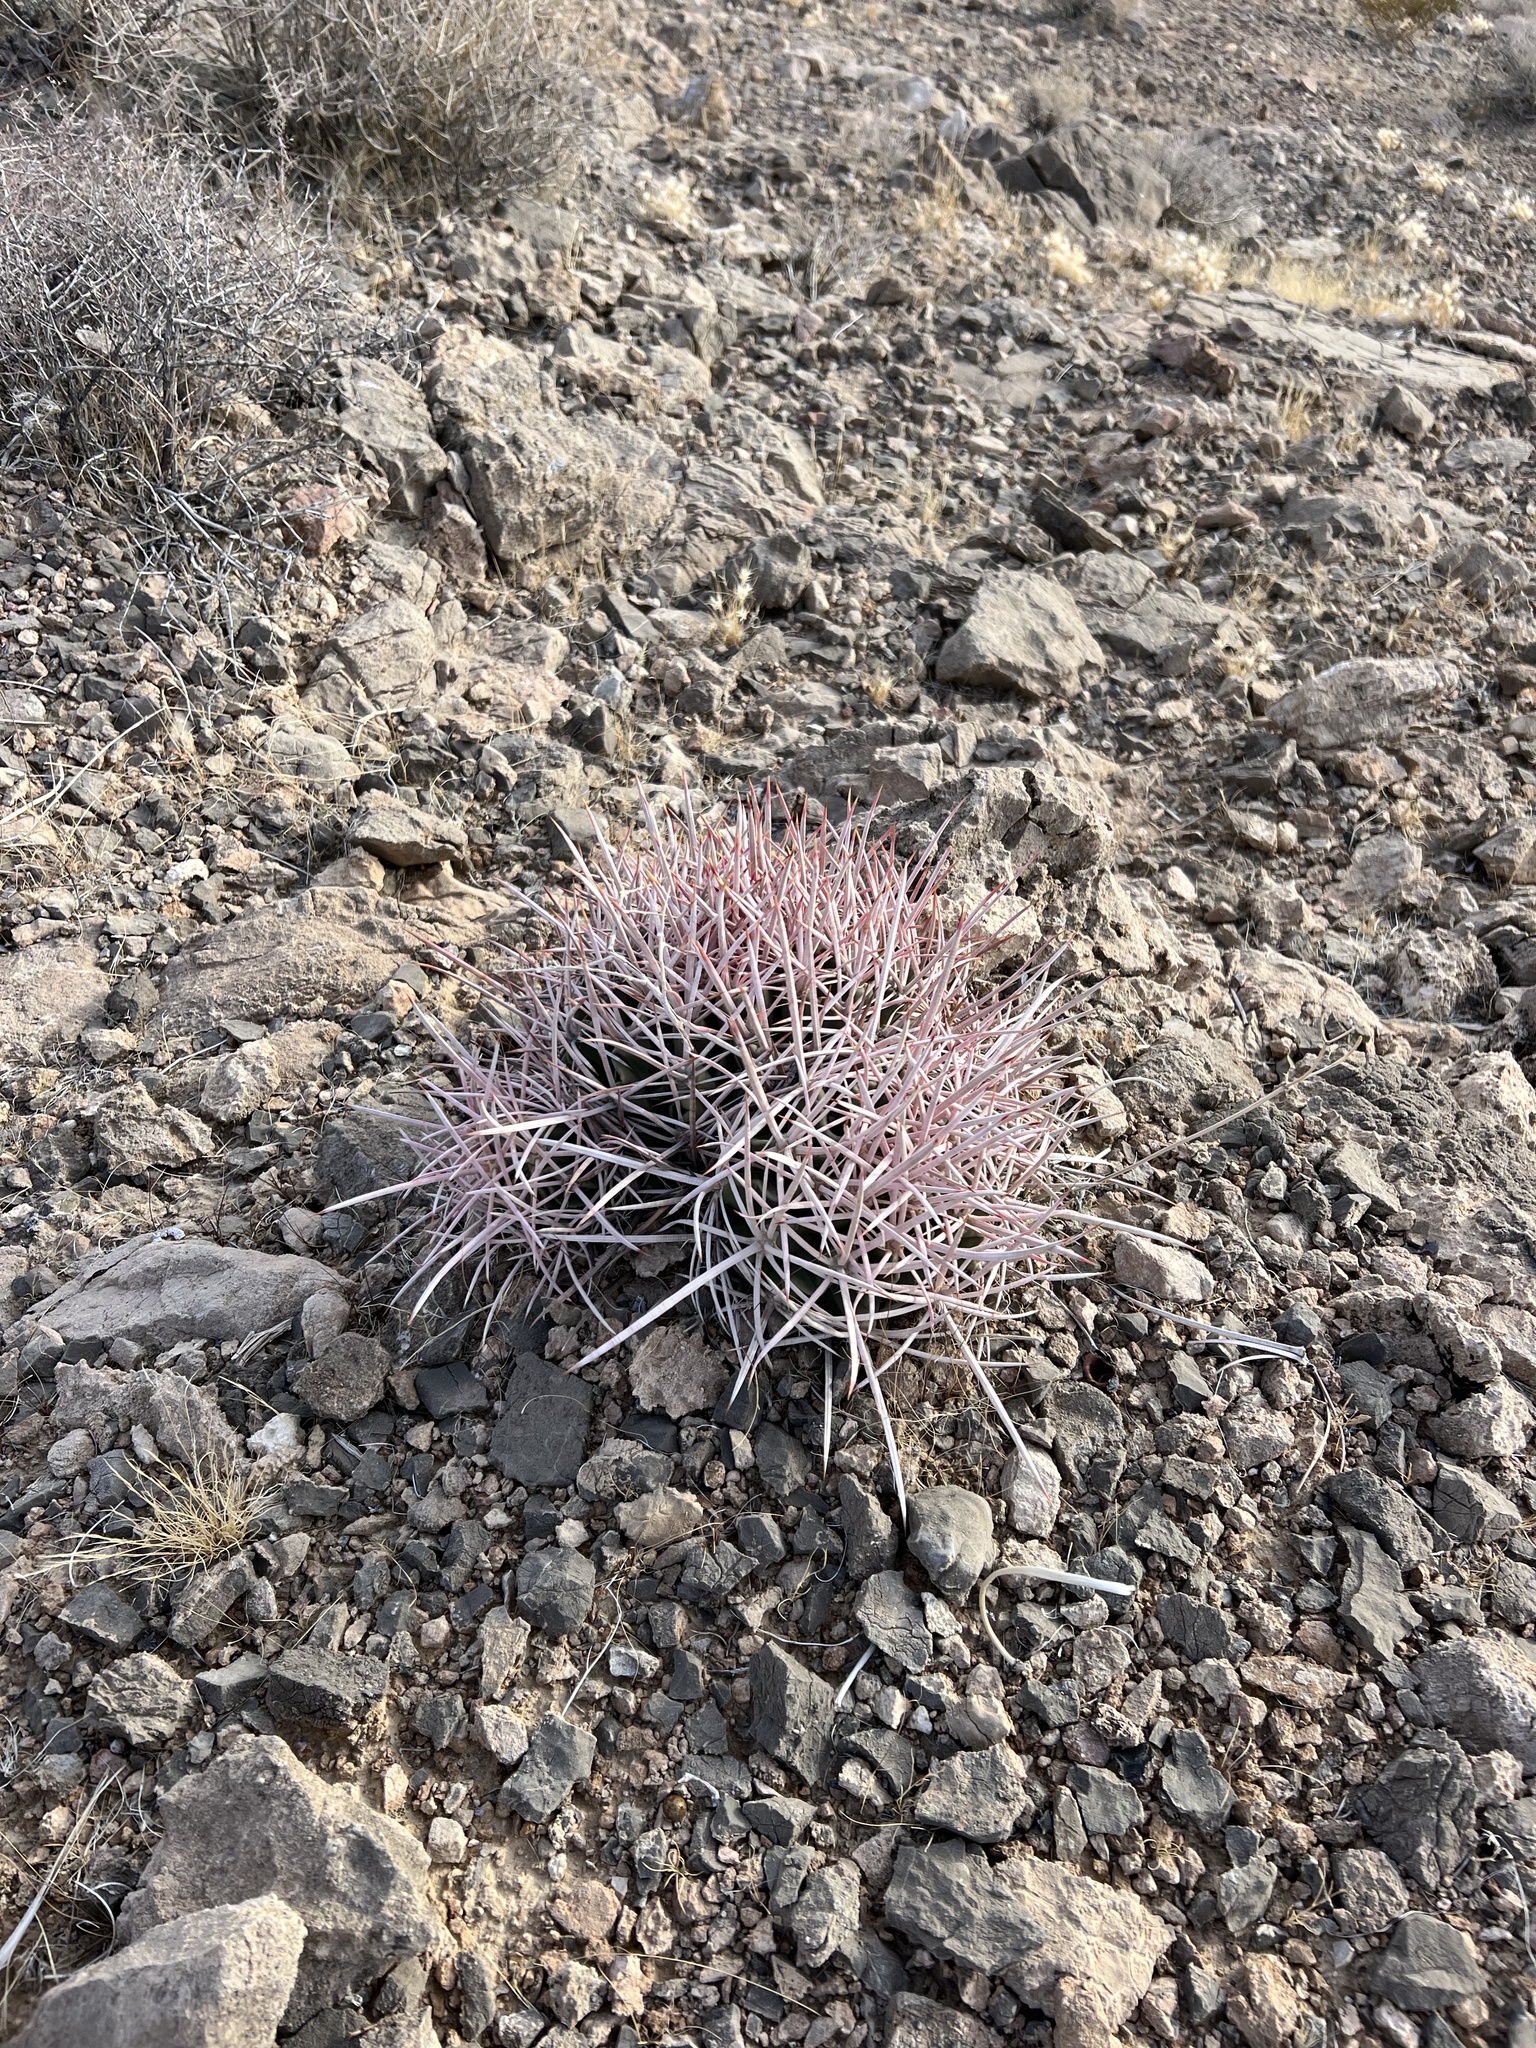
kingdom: Plantae
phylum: Tracheophyta
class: Magnoliopsida
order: Caryophyllales
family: Cactaceae
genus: Echinocactus
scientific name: Echinocactus polycephalus
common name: Cottontop cactus
